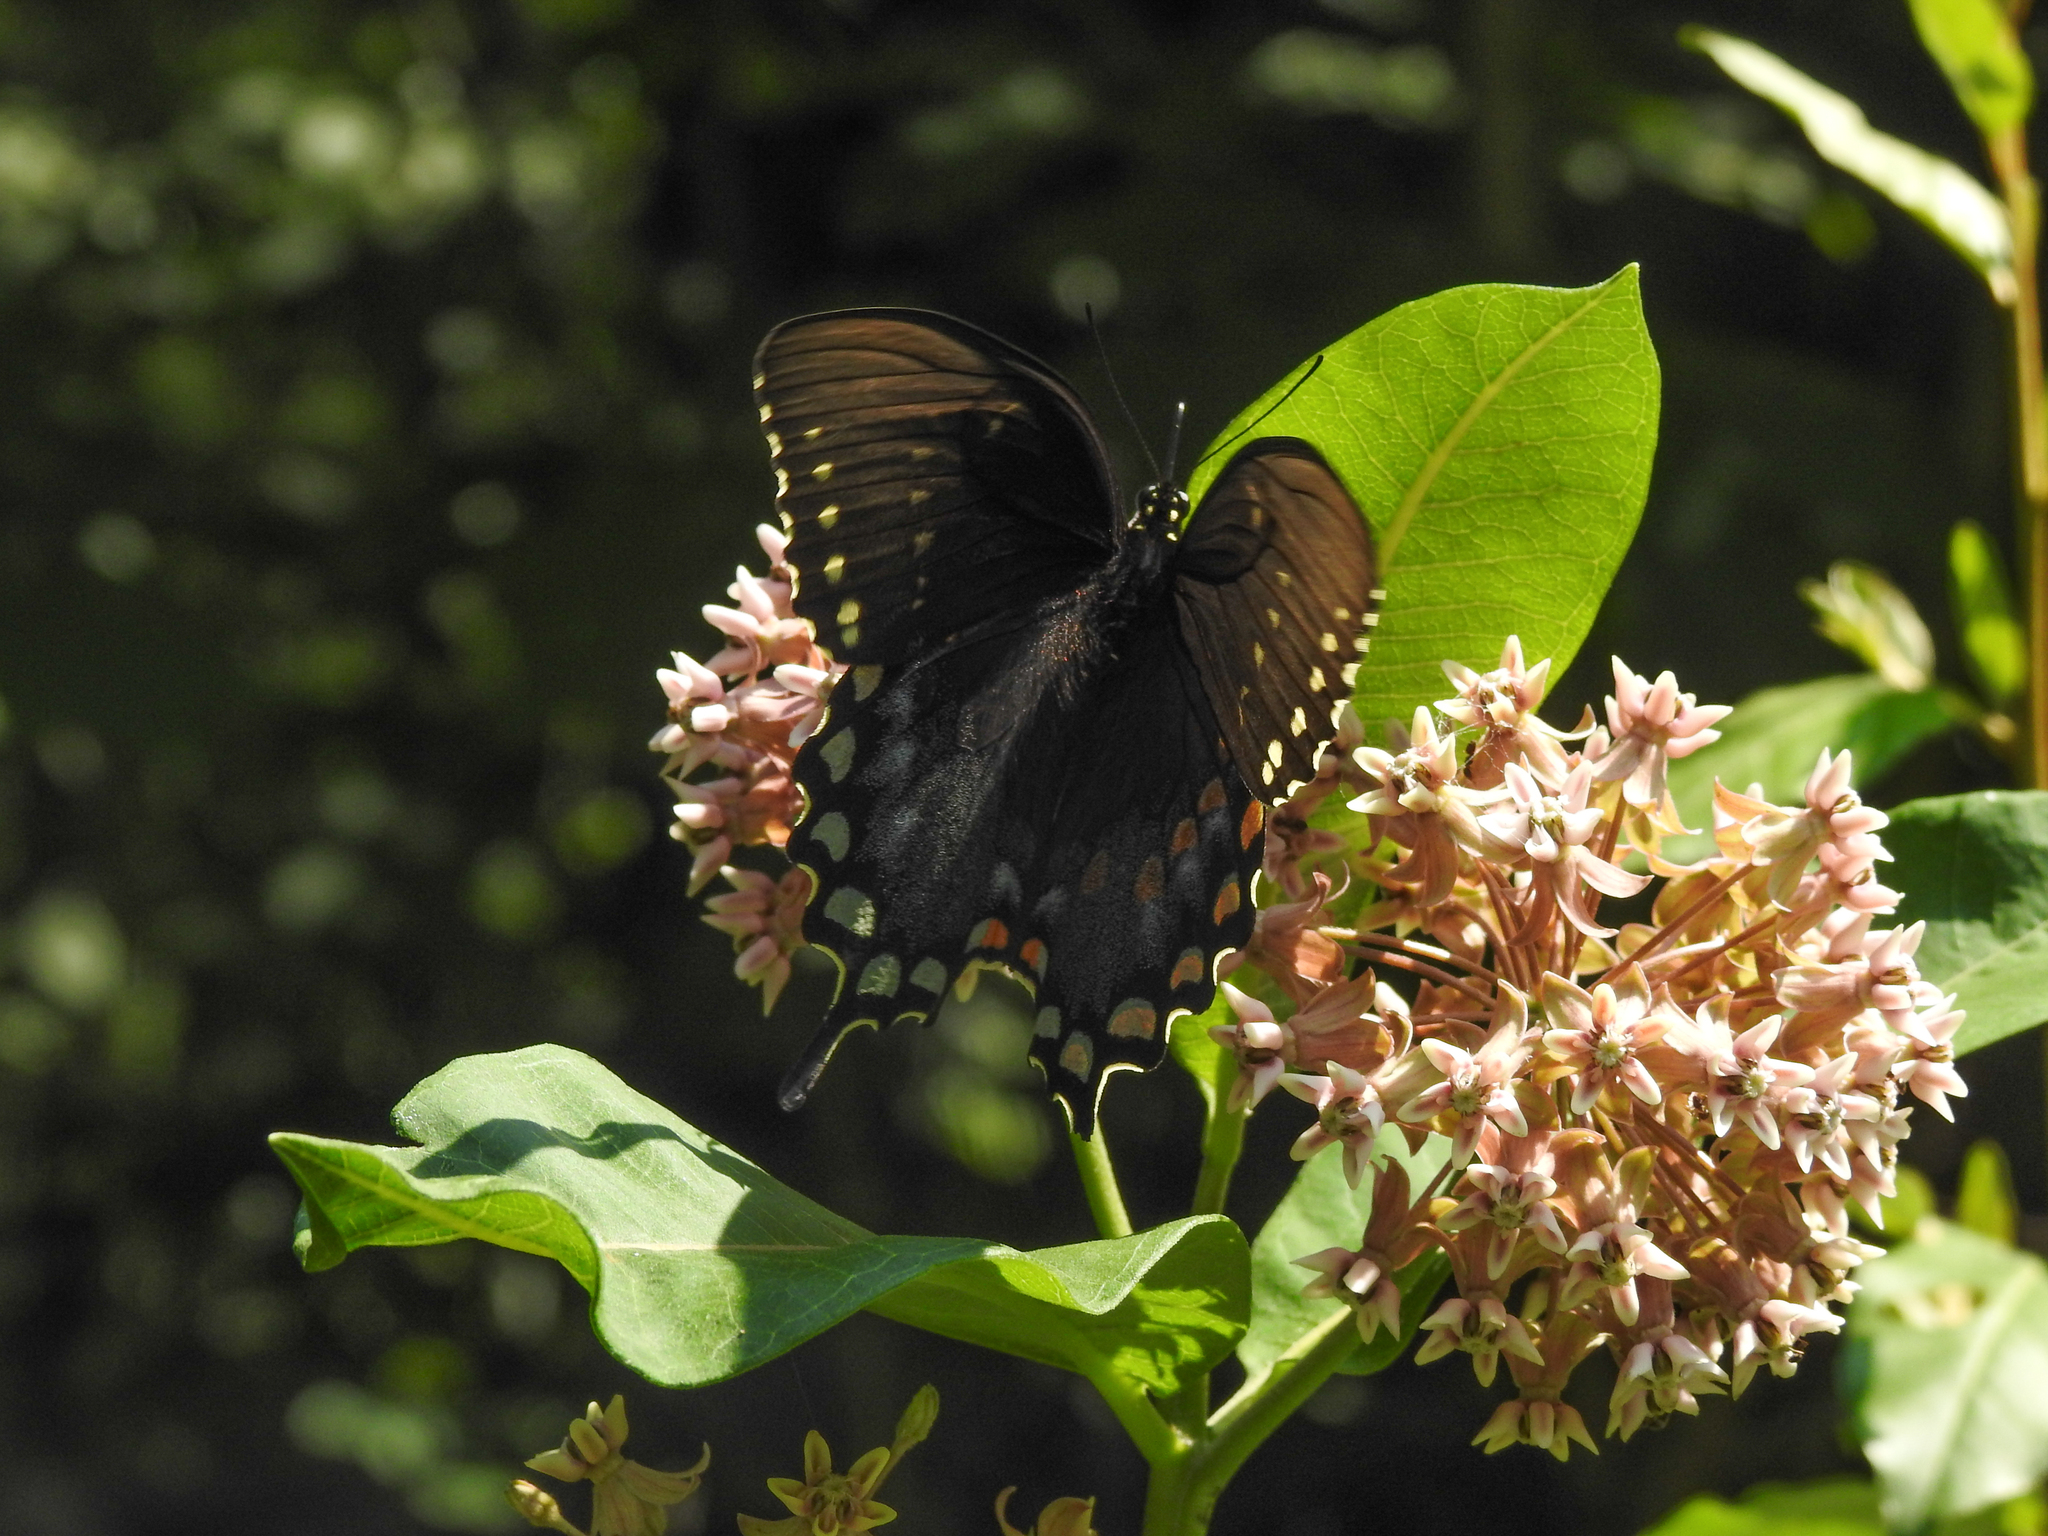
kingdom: Animalia
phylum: Arthropoda
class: Insecta
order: Lepidoptera
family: Papilionidae
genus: Papilio
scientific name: Papilio troilus
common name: Spicebush swallowtail
